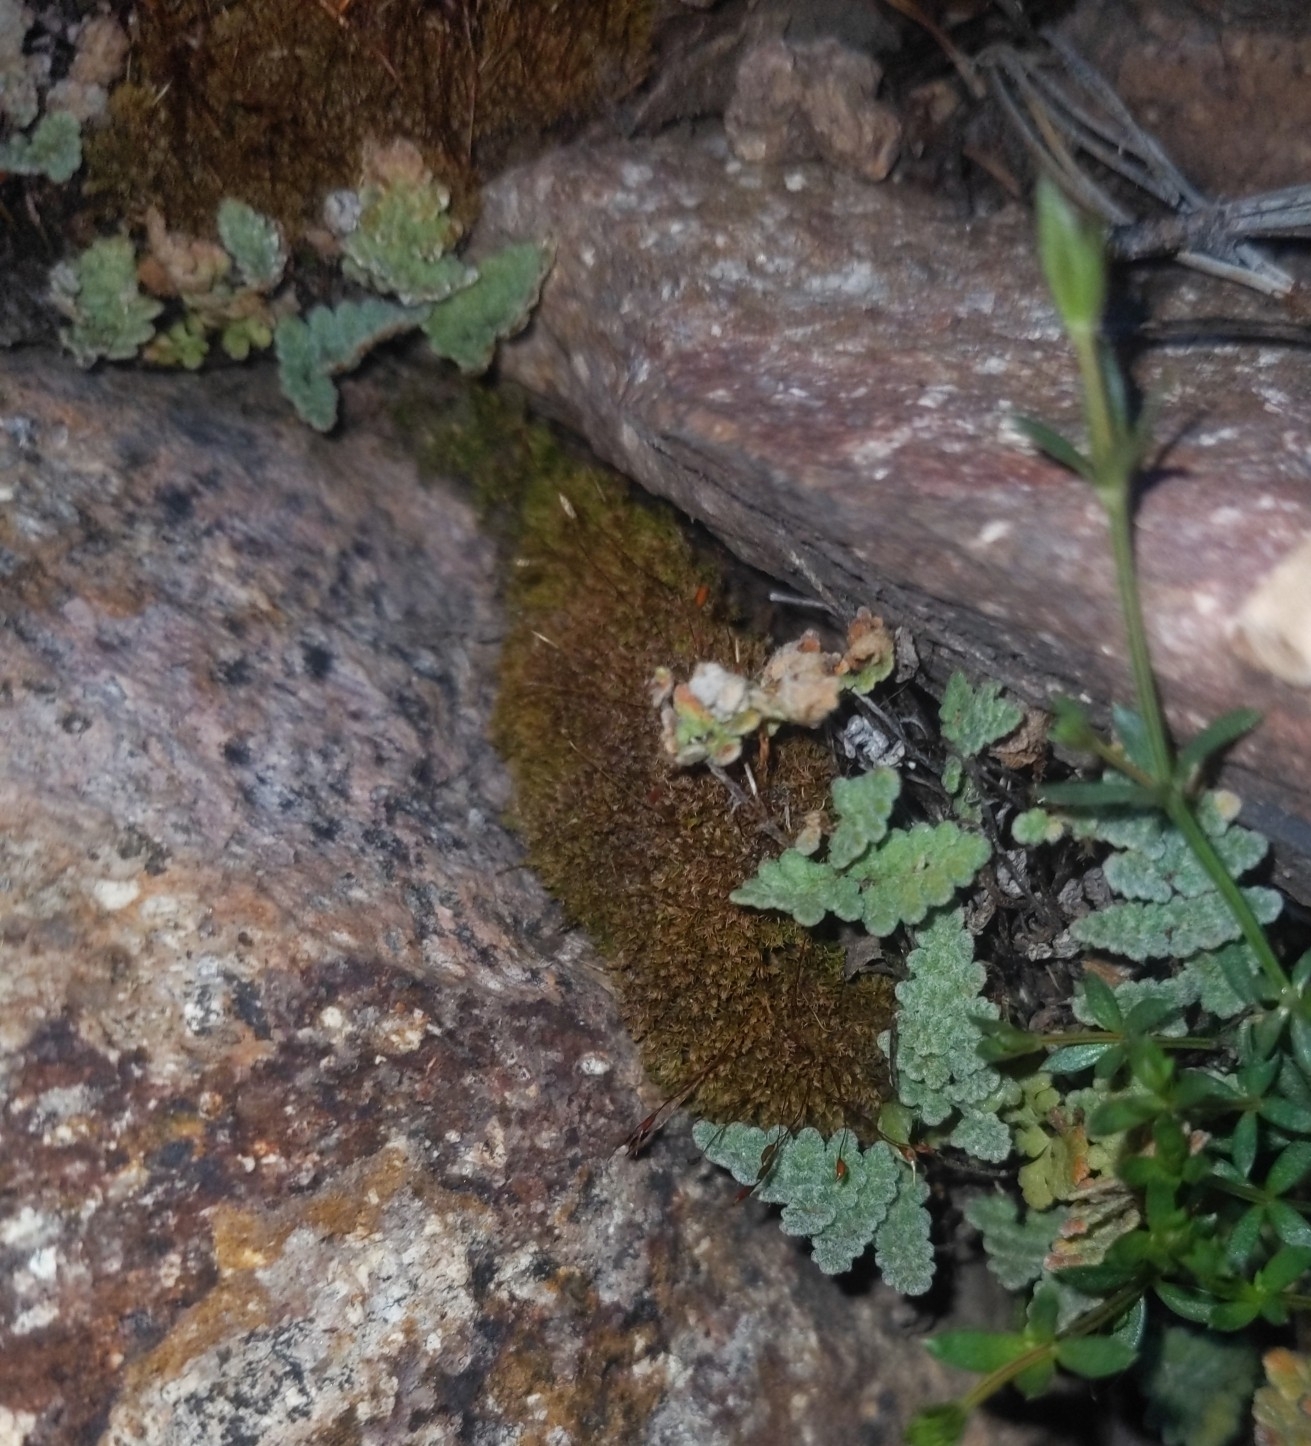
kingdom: Plantae
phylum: Tracheophyta
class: Polypodiopsida
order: Polypodiales
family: Pteridaceae
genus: Myriopteris
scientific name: Myriopteris rufa
